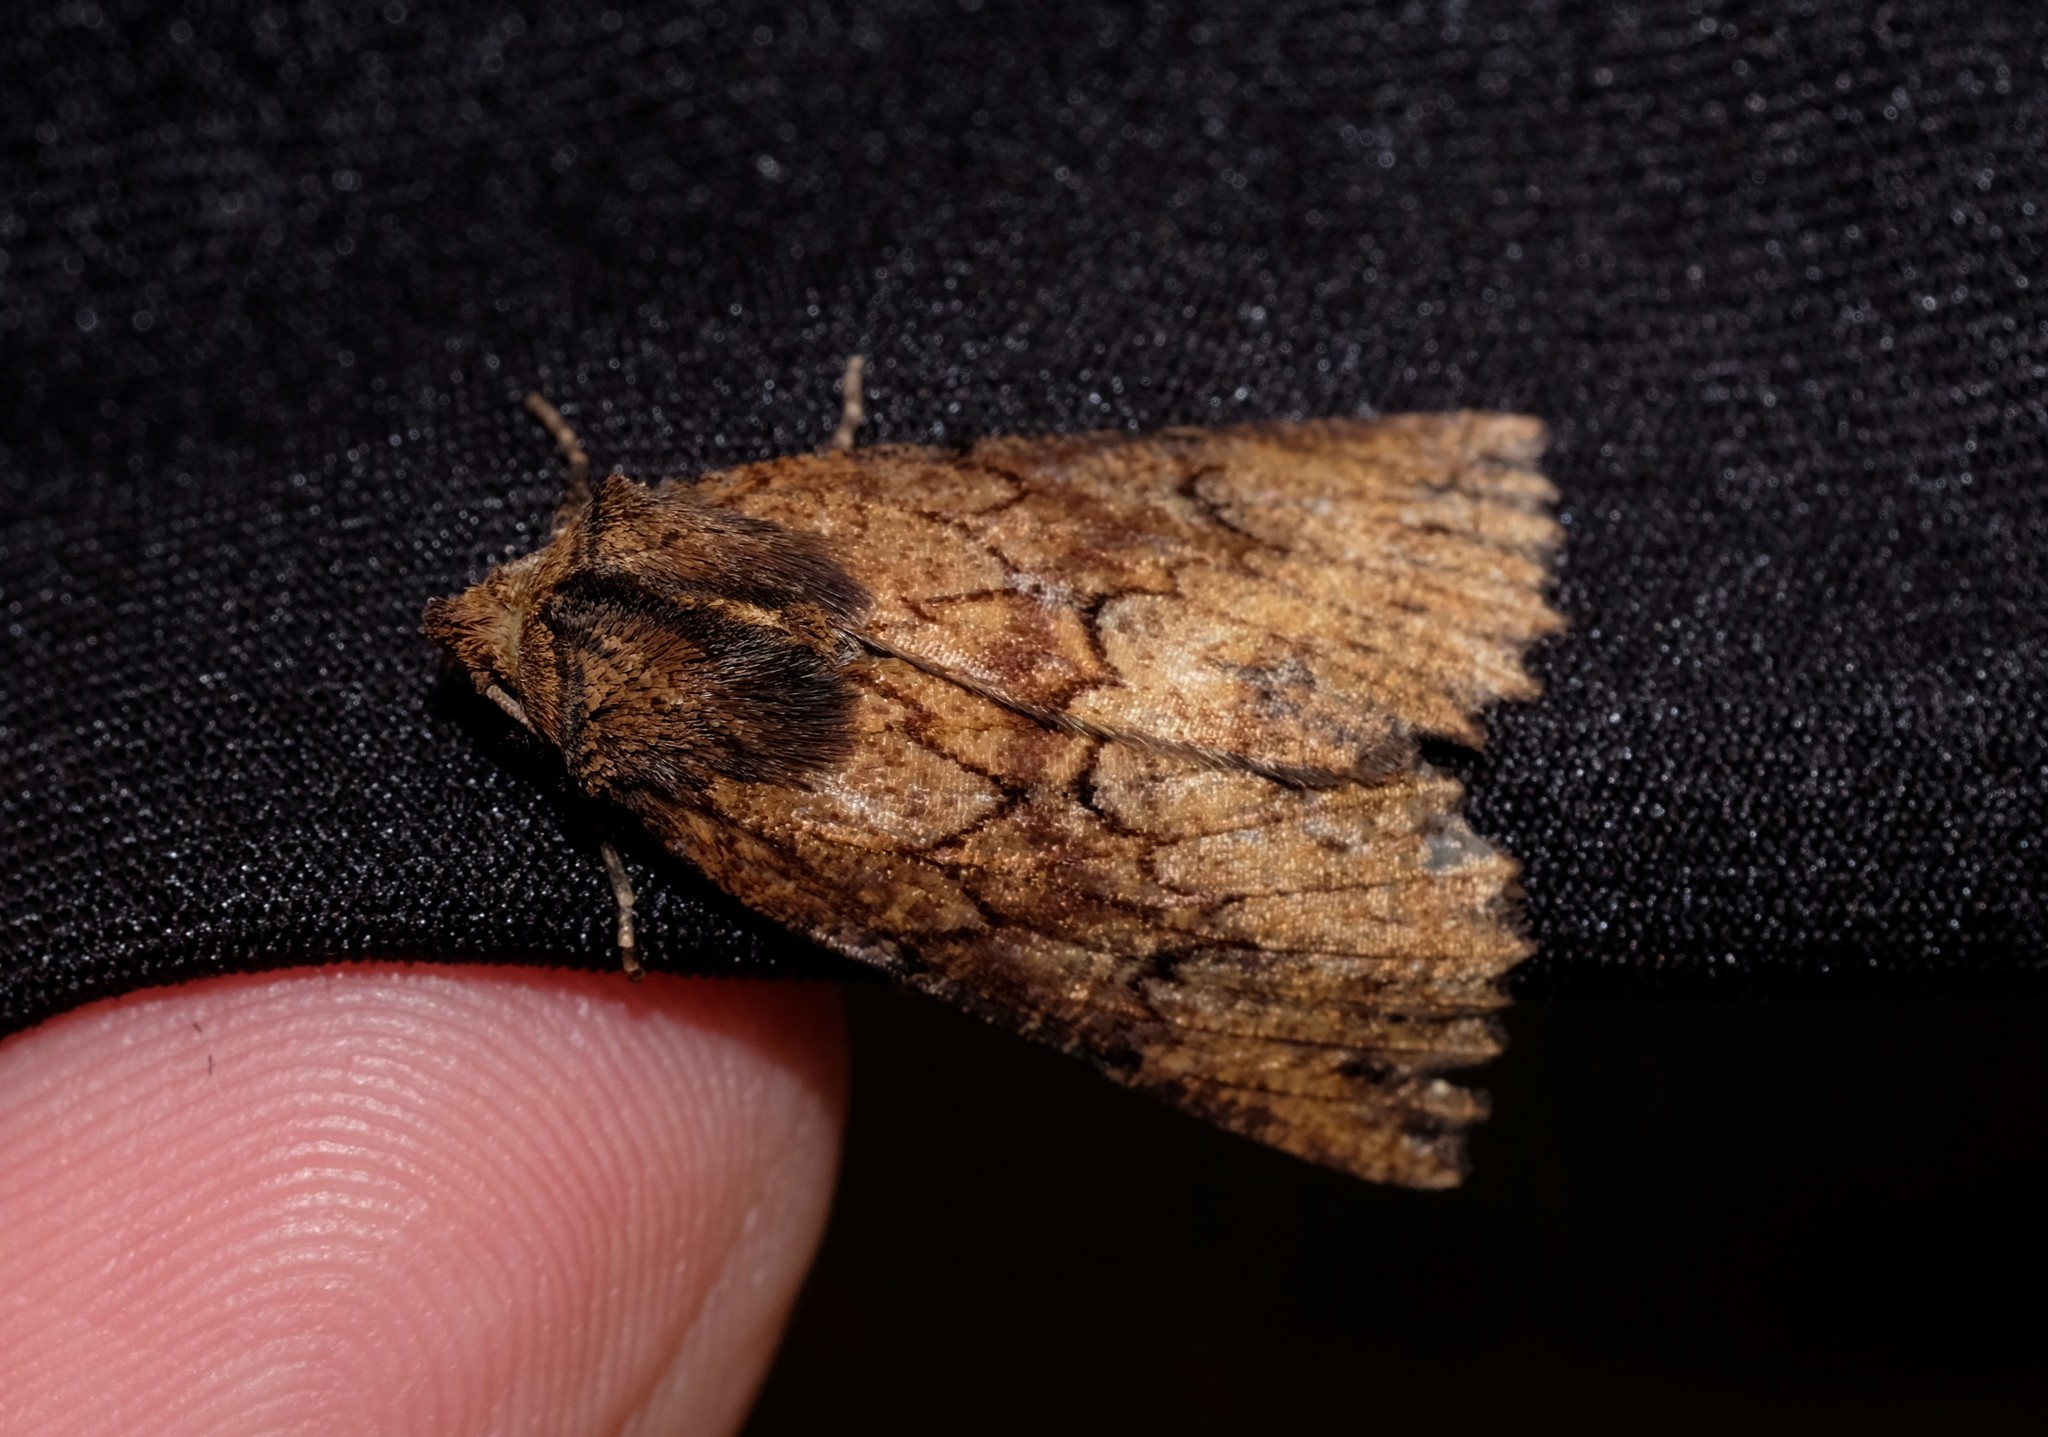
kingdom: Animalia
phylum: Arthropoda
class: Insecta
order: Lepidoptera
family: Geometridae
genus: Nisista
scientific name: Nisista serrata
